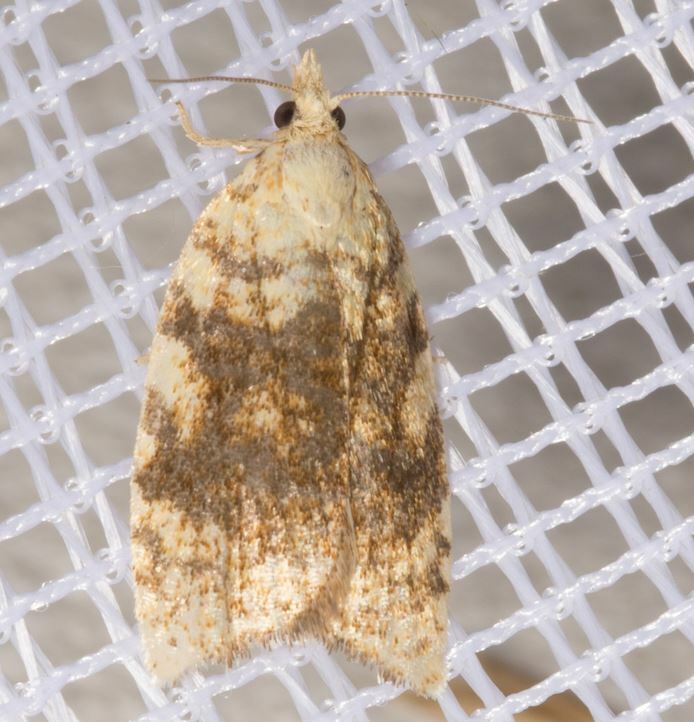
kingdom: Animalia
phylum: Arthropoda
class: Insecta
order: Lepidoptera
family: Tortricidae
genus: Aleimma
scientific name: Aleimma loeflingiana
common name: Yellow oak button
